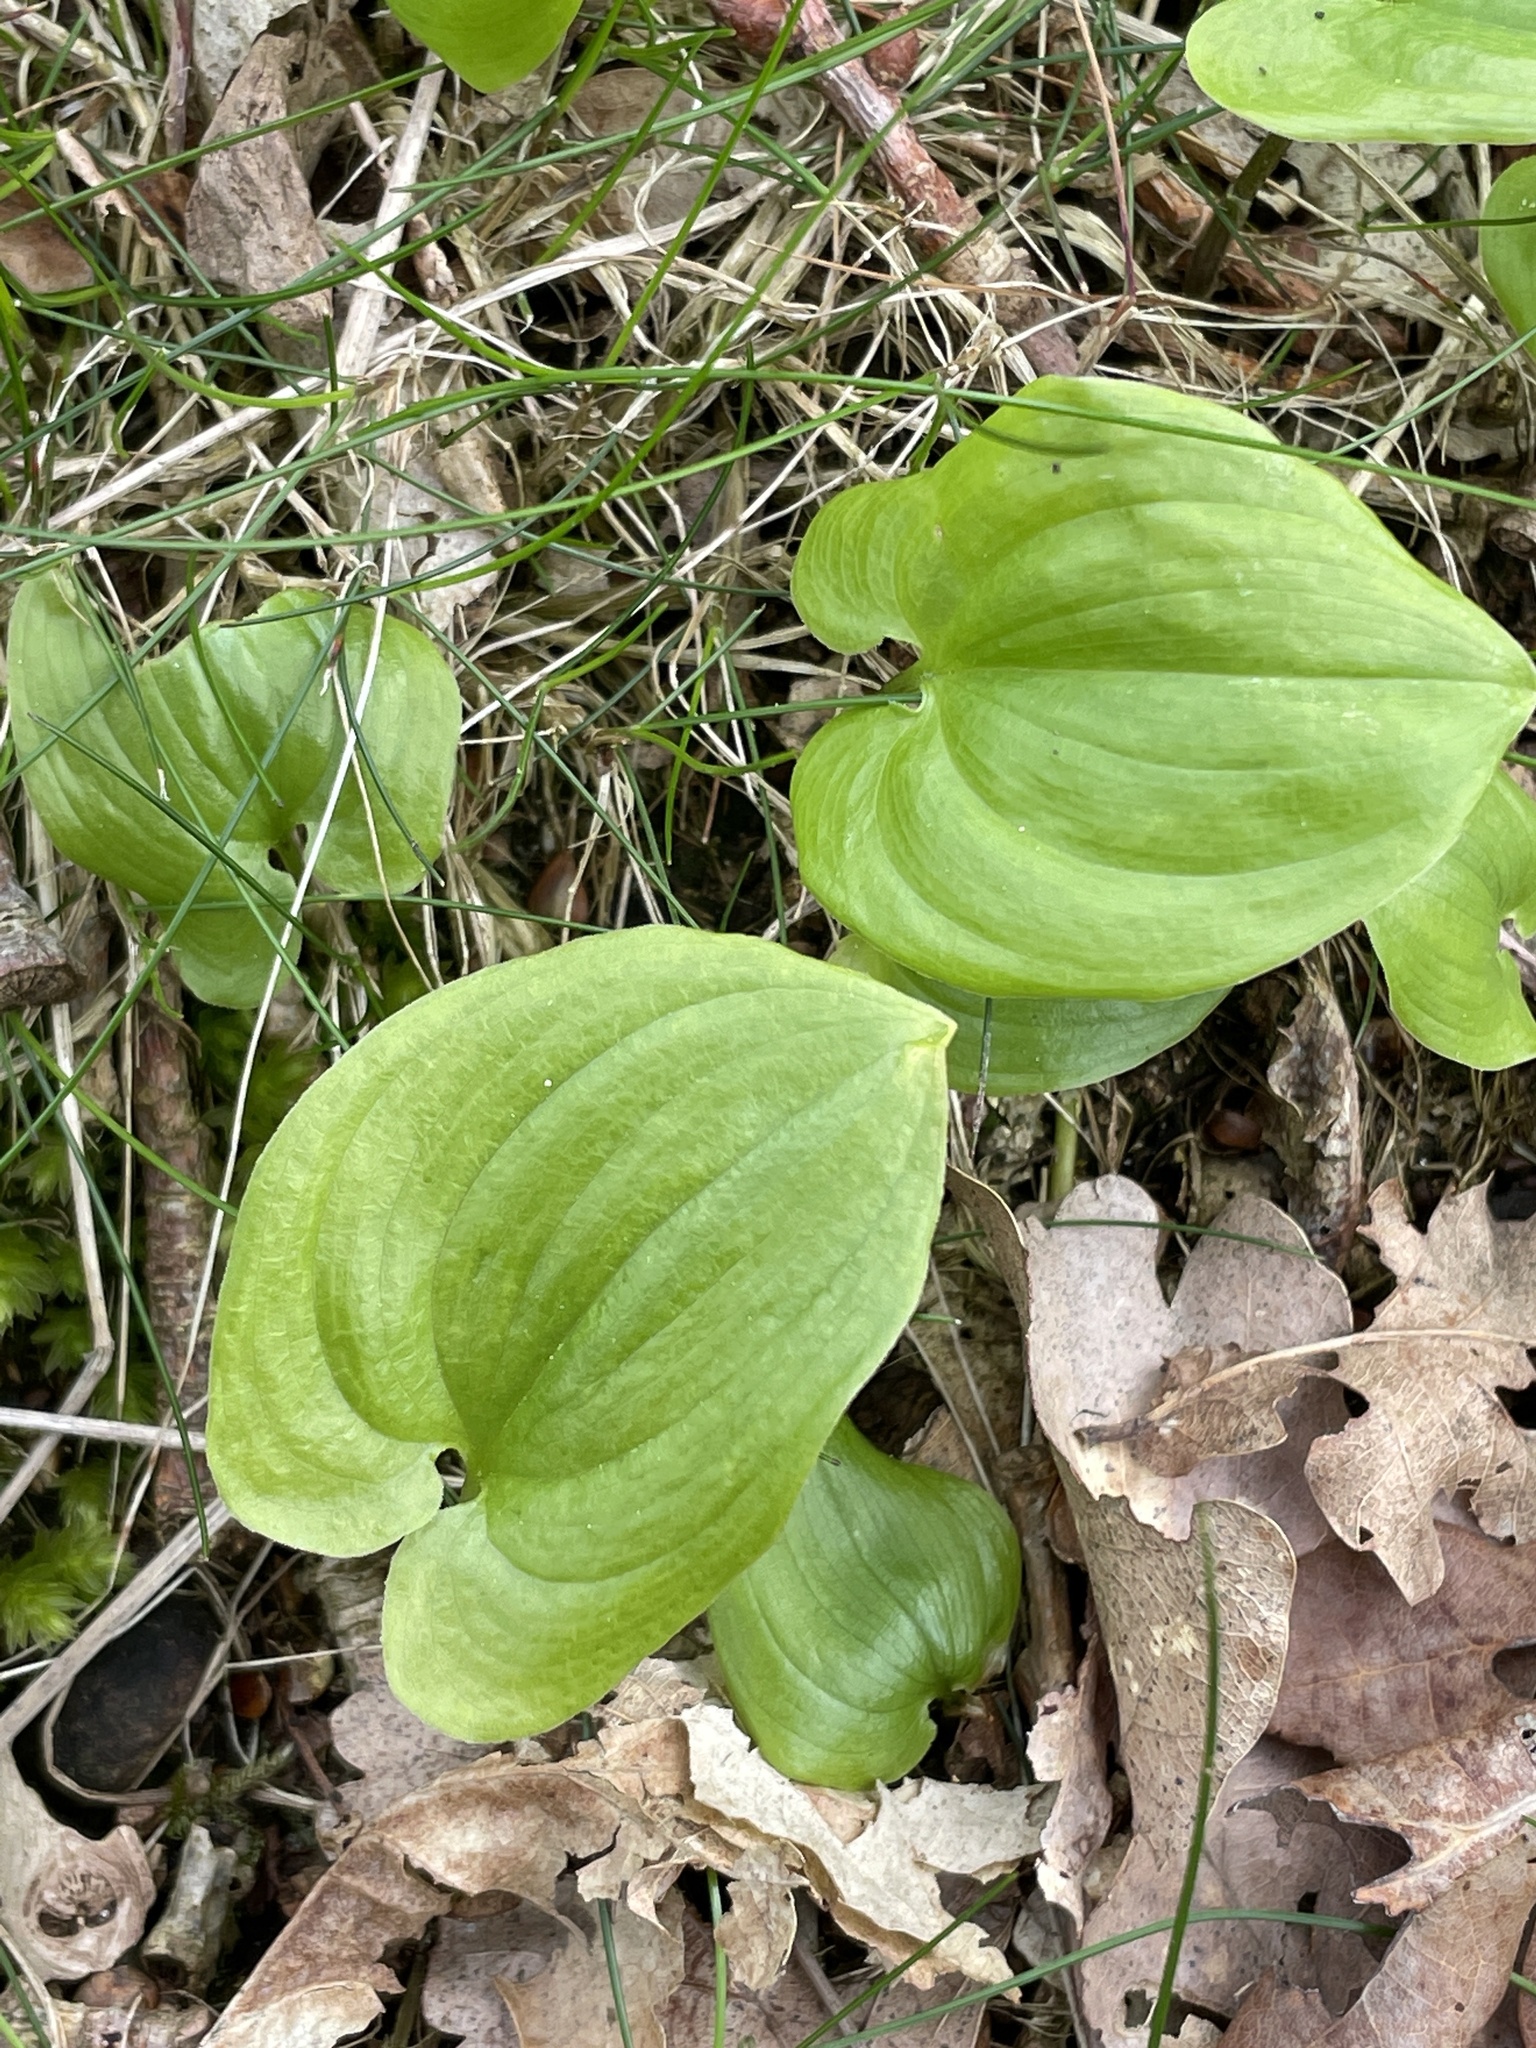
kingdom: Plantae
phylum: Tracheophyta
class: Liliopsida
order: Asparagales
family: Asparagaceae
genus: Maianthemum
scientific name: Maianthemum bifolium
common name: May lily
